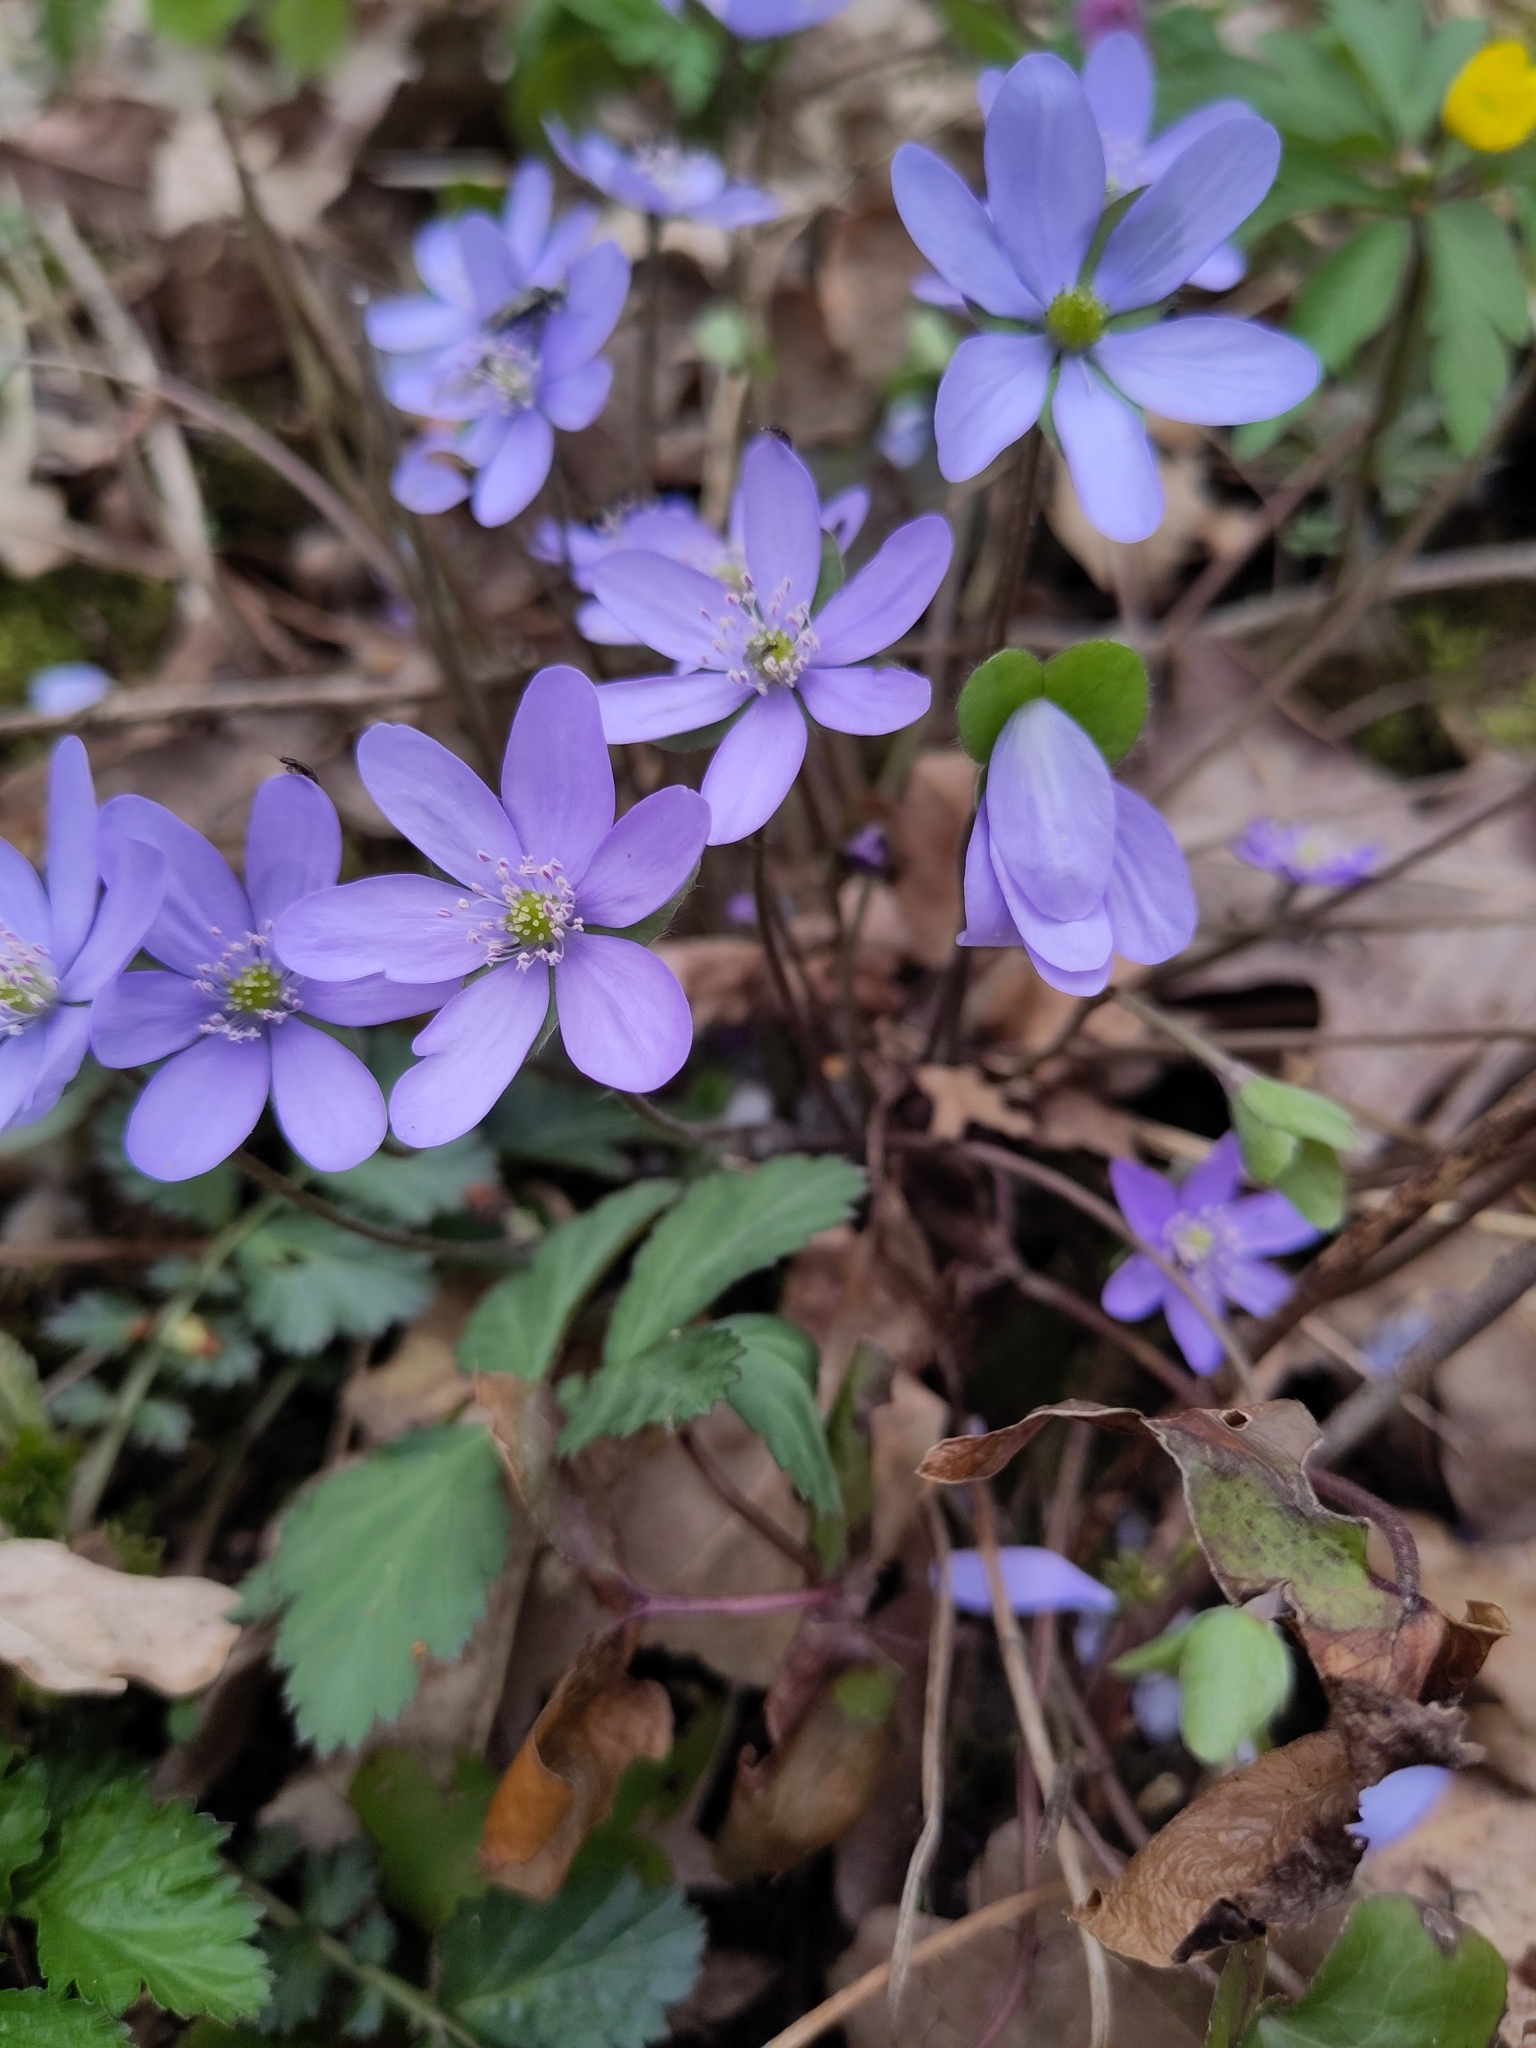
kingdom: Plantae
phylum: Tracheophyta
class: Magnoliopsida
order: Ranunculales
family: Ranunculaceae
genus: Hepatica
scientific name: Hepatica nobilis
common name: Liverleaf
